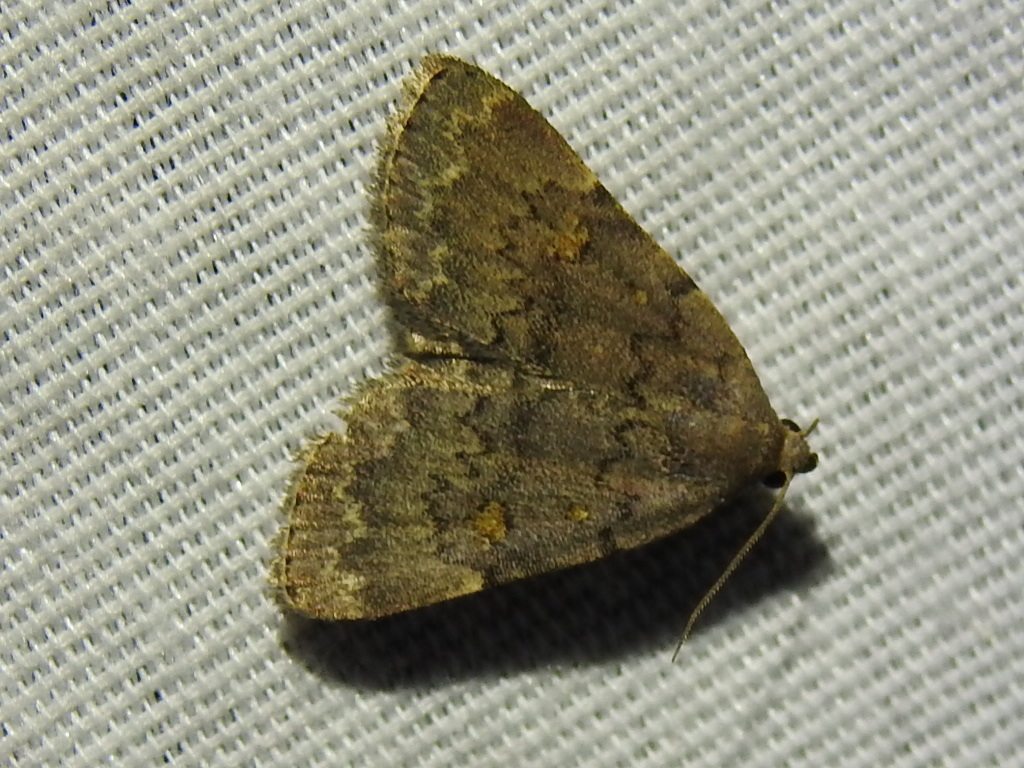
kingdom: Animalia
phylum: Arthropoda
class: Insecta
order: Lepidoptera
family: Erebidae
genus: Idia
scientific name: Idia aemula
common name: Common idia moth
